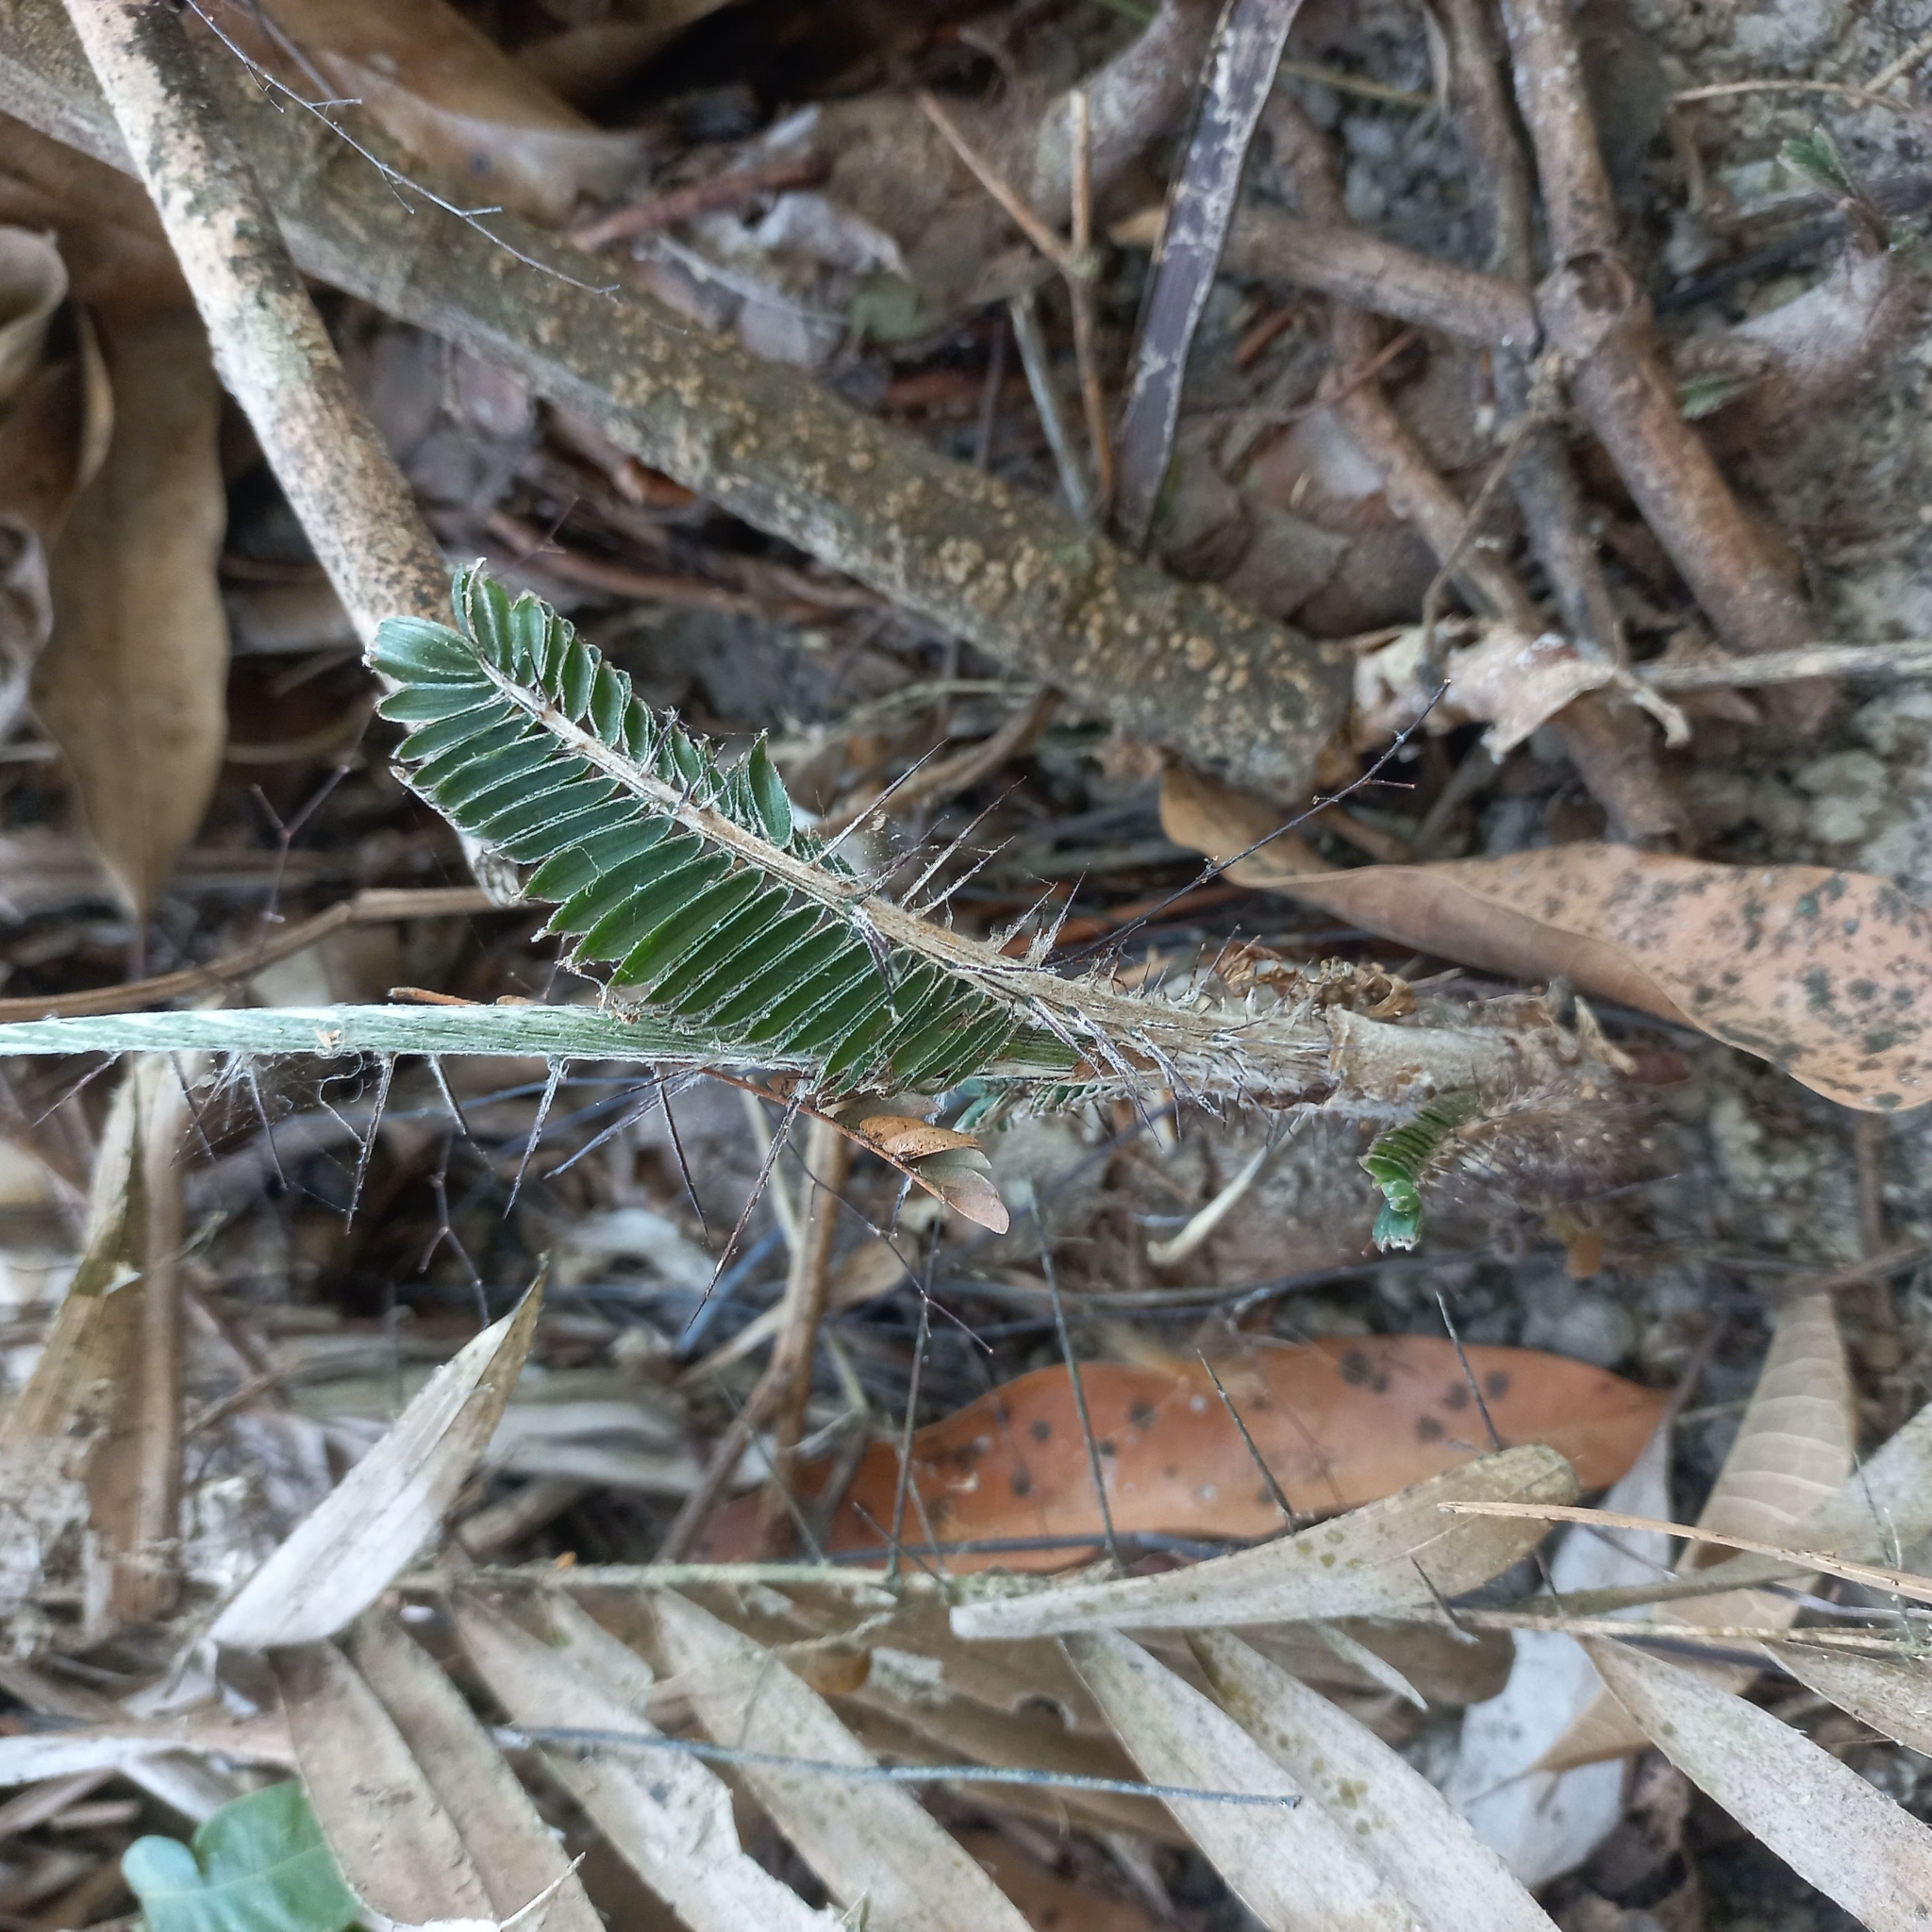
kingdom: Plantae
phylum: Tracheophyta
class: Liliopsida
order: Arecales
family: Arecaceae
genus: Bactris
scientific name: Bactris major
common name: Beach palm
